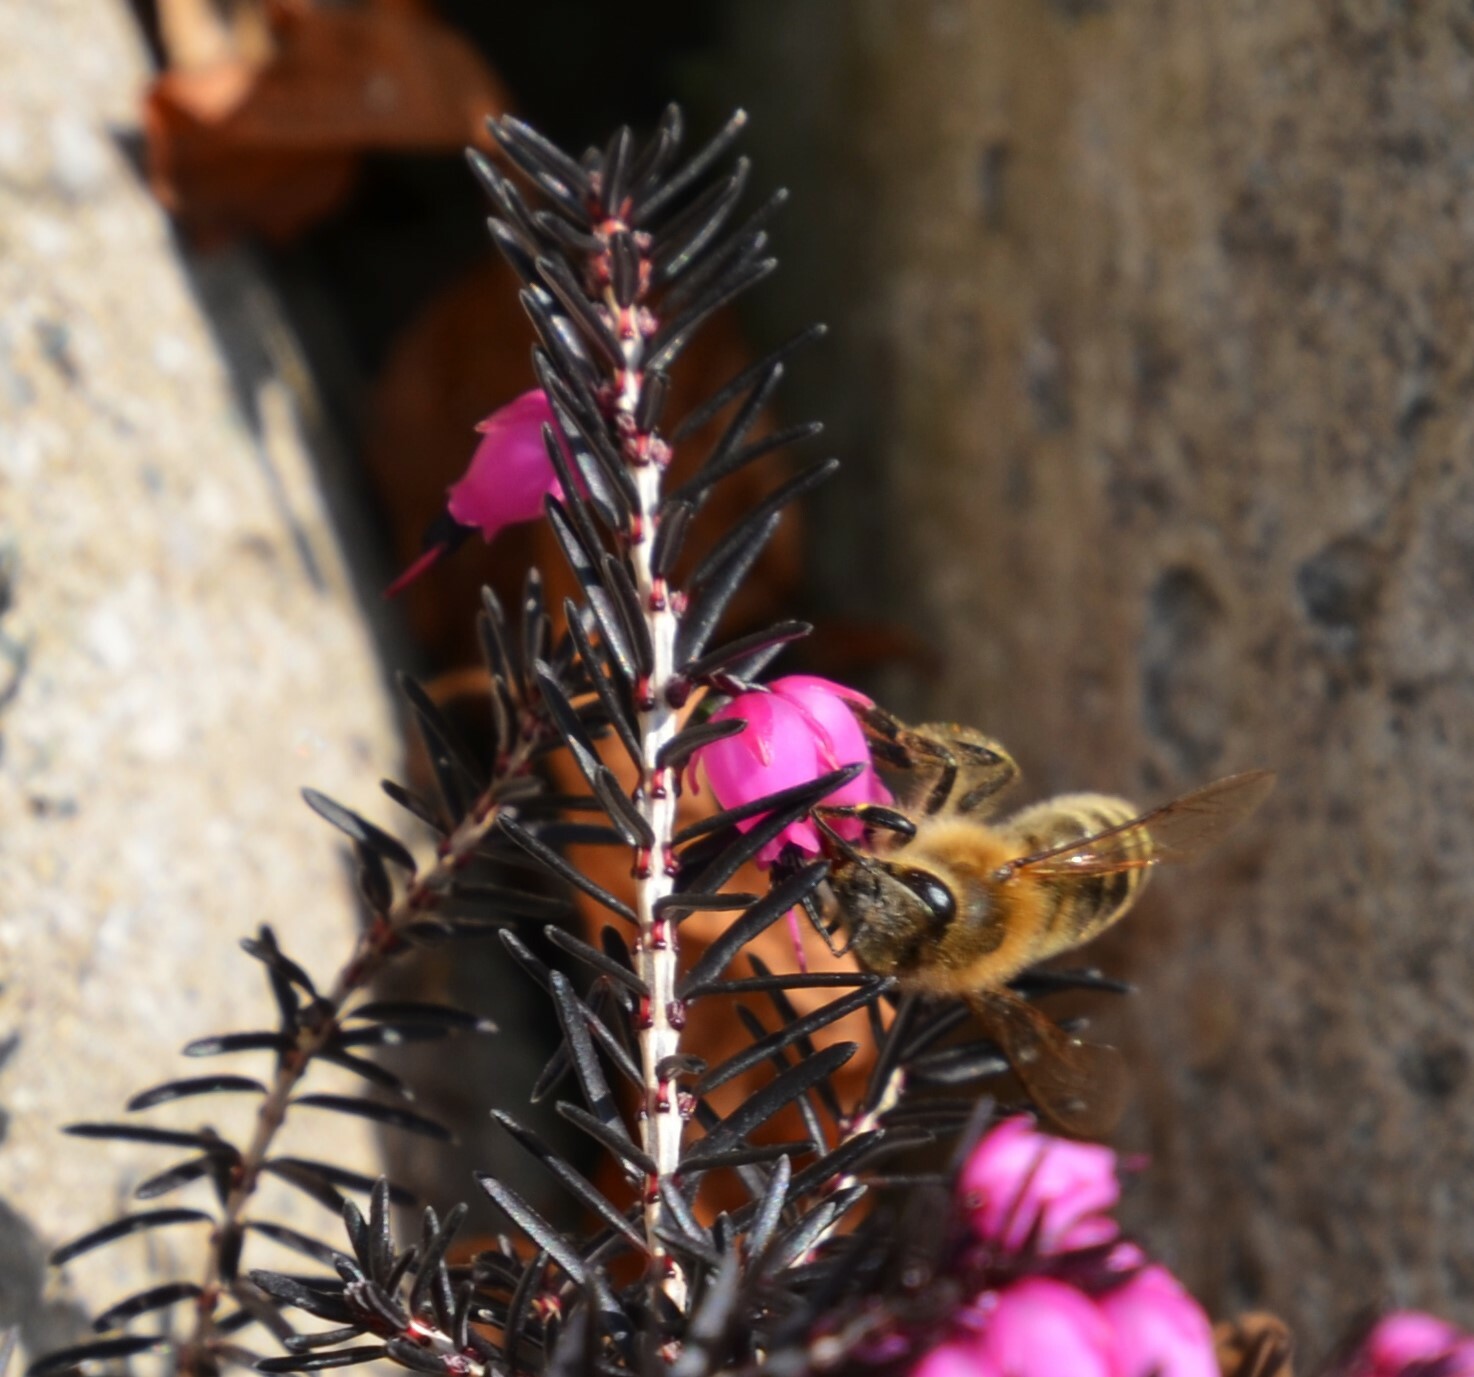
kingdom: Animalia
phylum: Arthropoda
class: Insecta
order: Hymenoptera
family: Apidae
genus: Apis
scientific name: Apis mellifera
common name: Honey bee
